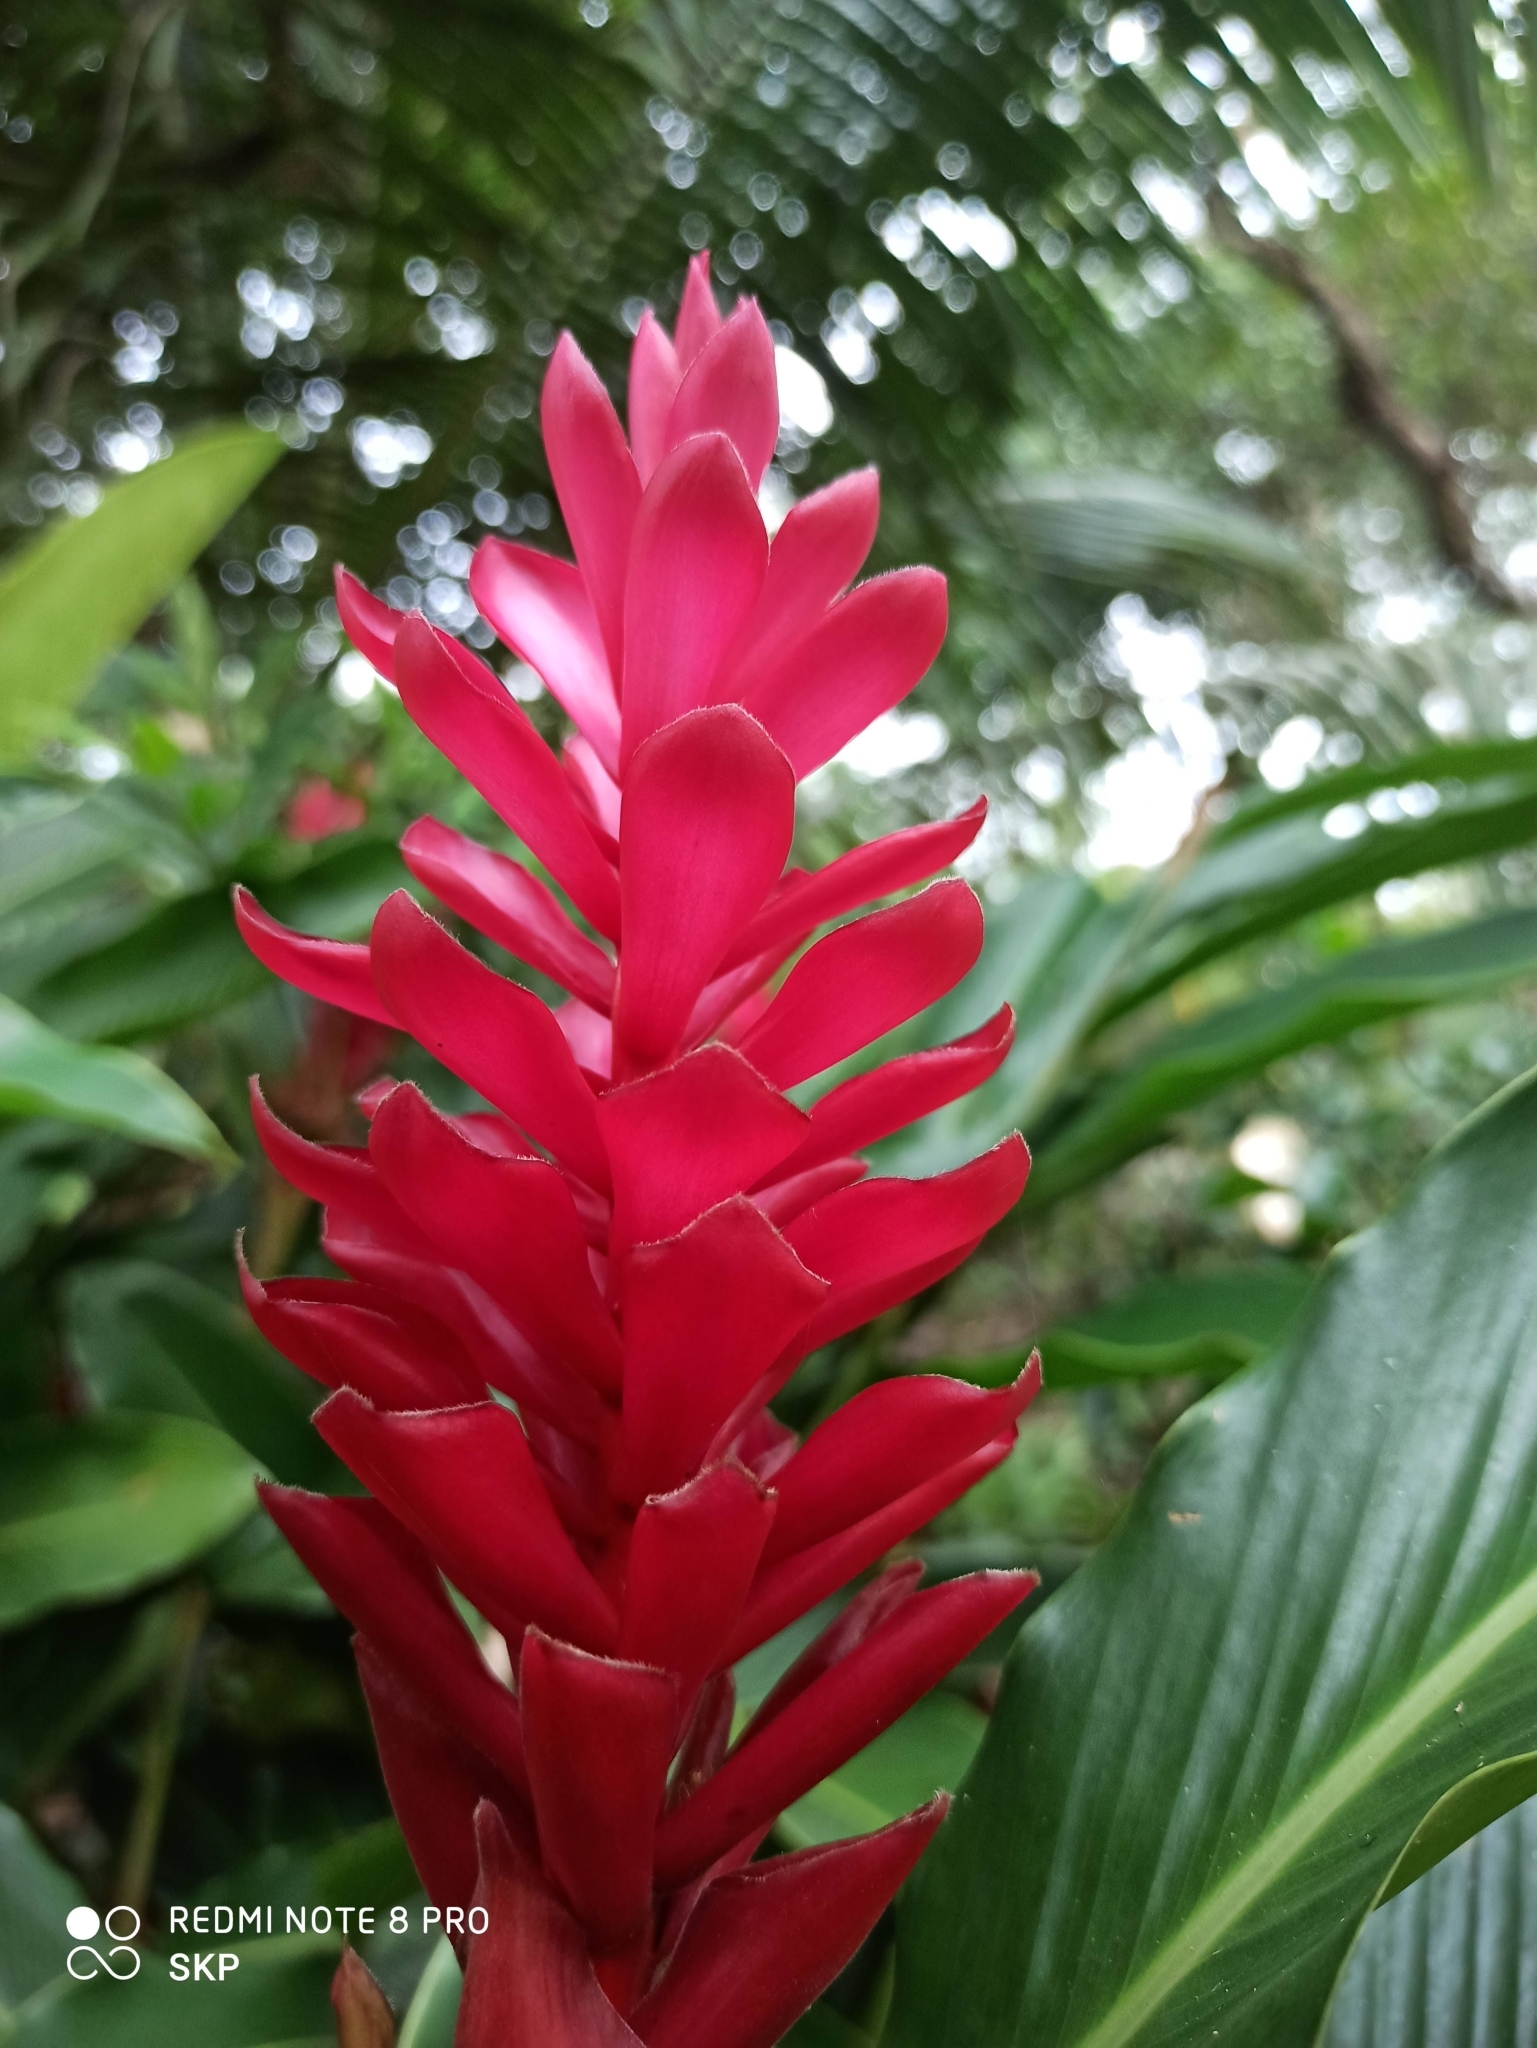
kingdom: Plantae
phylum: Tracheophyta
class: Liliopsida
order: Zingiberales
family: Zingiberaceae
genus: Alpinia
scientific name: Alpinia purpurata
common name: Red ginger
